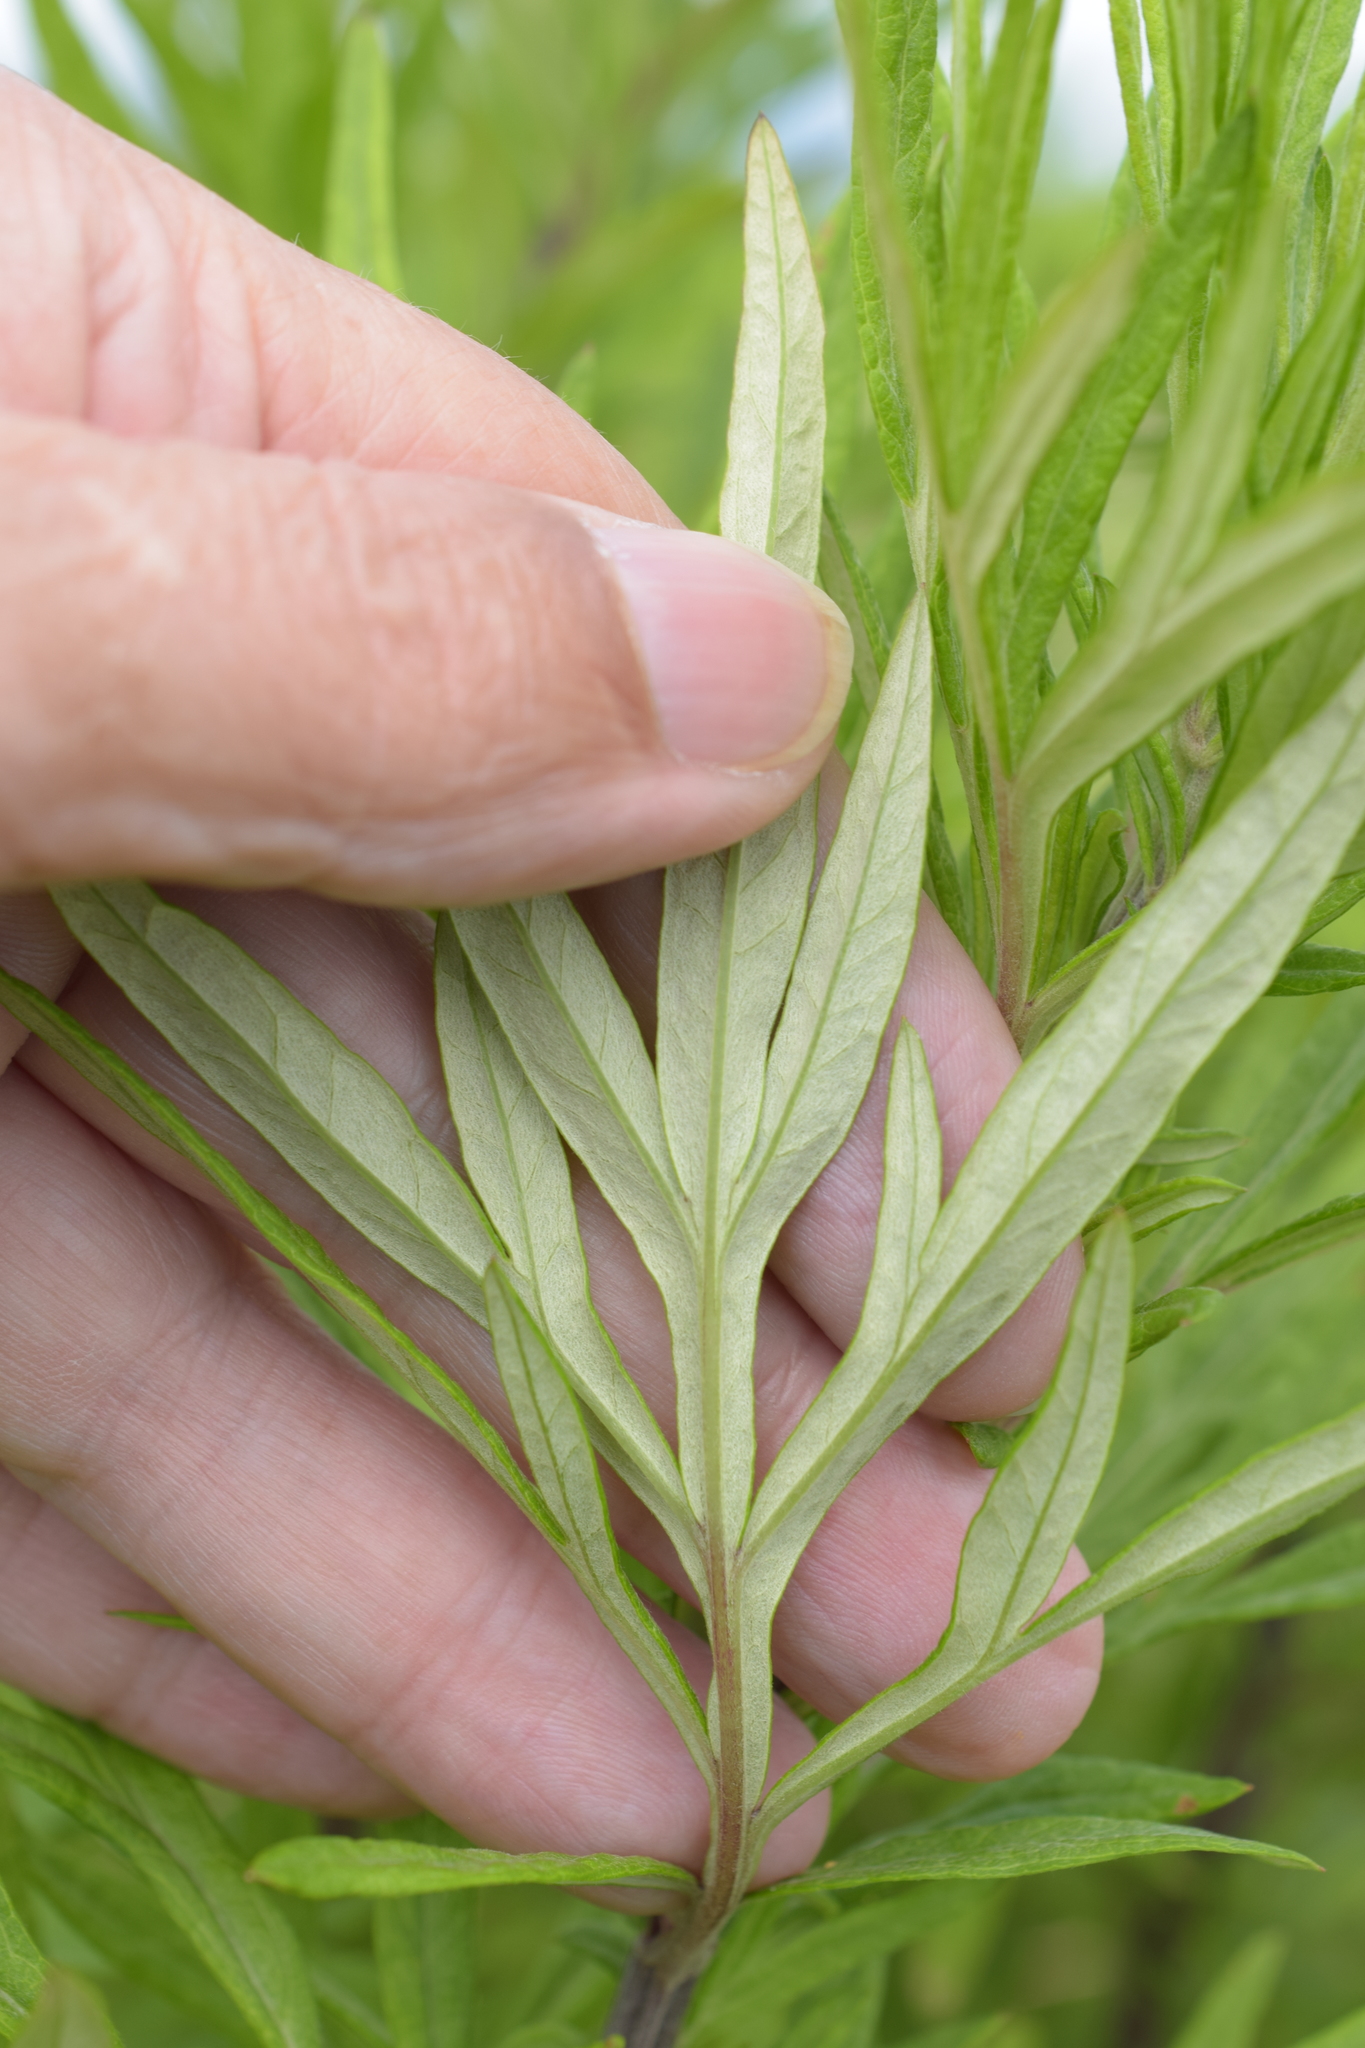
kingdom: Plantae
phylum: Tracheophyta
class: Magnoliopsida
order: Asterales
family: Asteraceae
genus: Artemisia
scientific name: Artemisia verlotiorum
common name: Chinese mugwort
